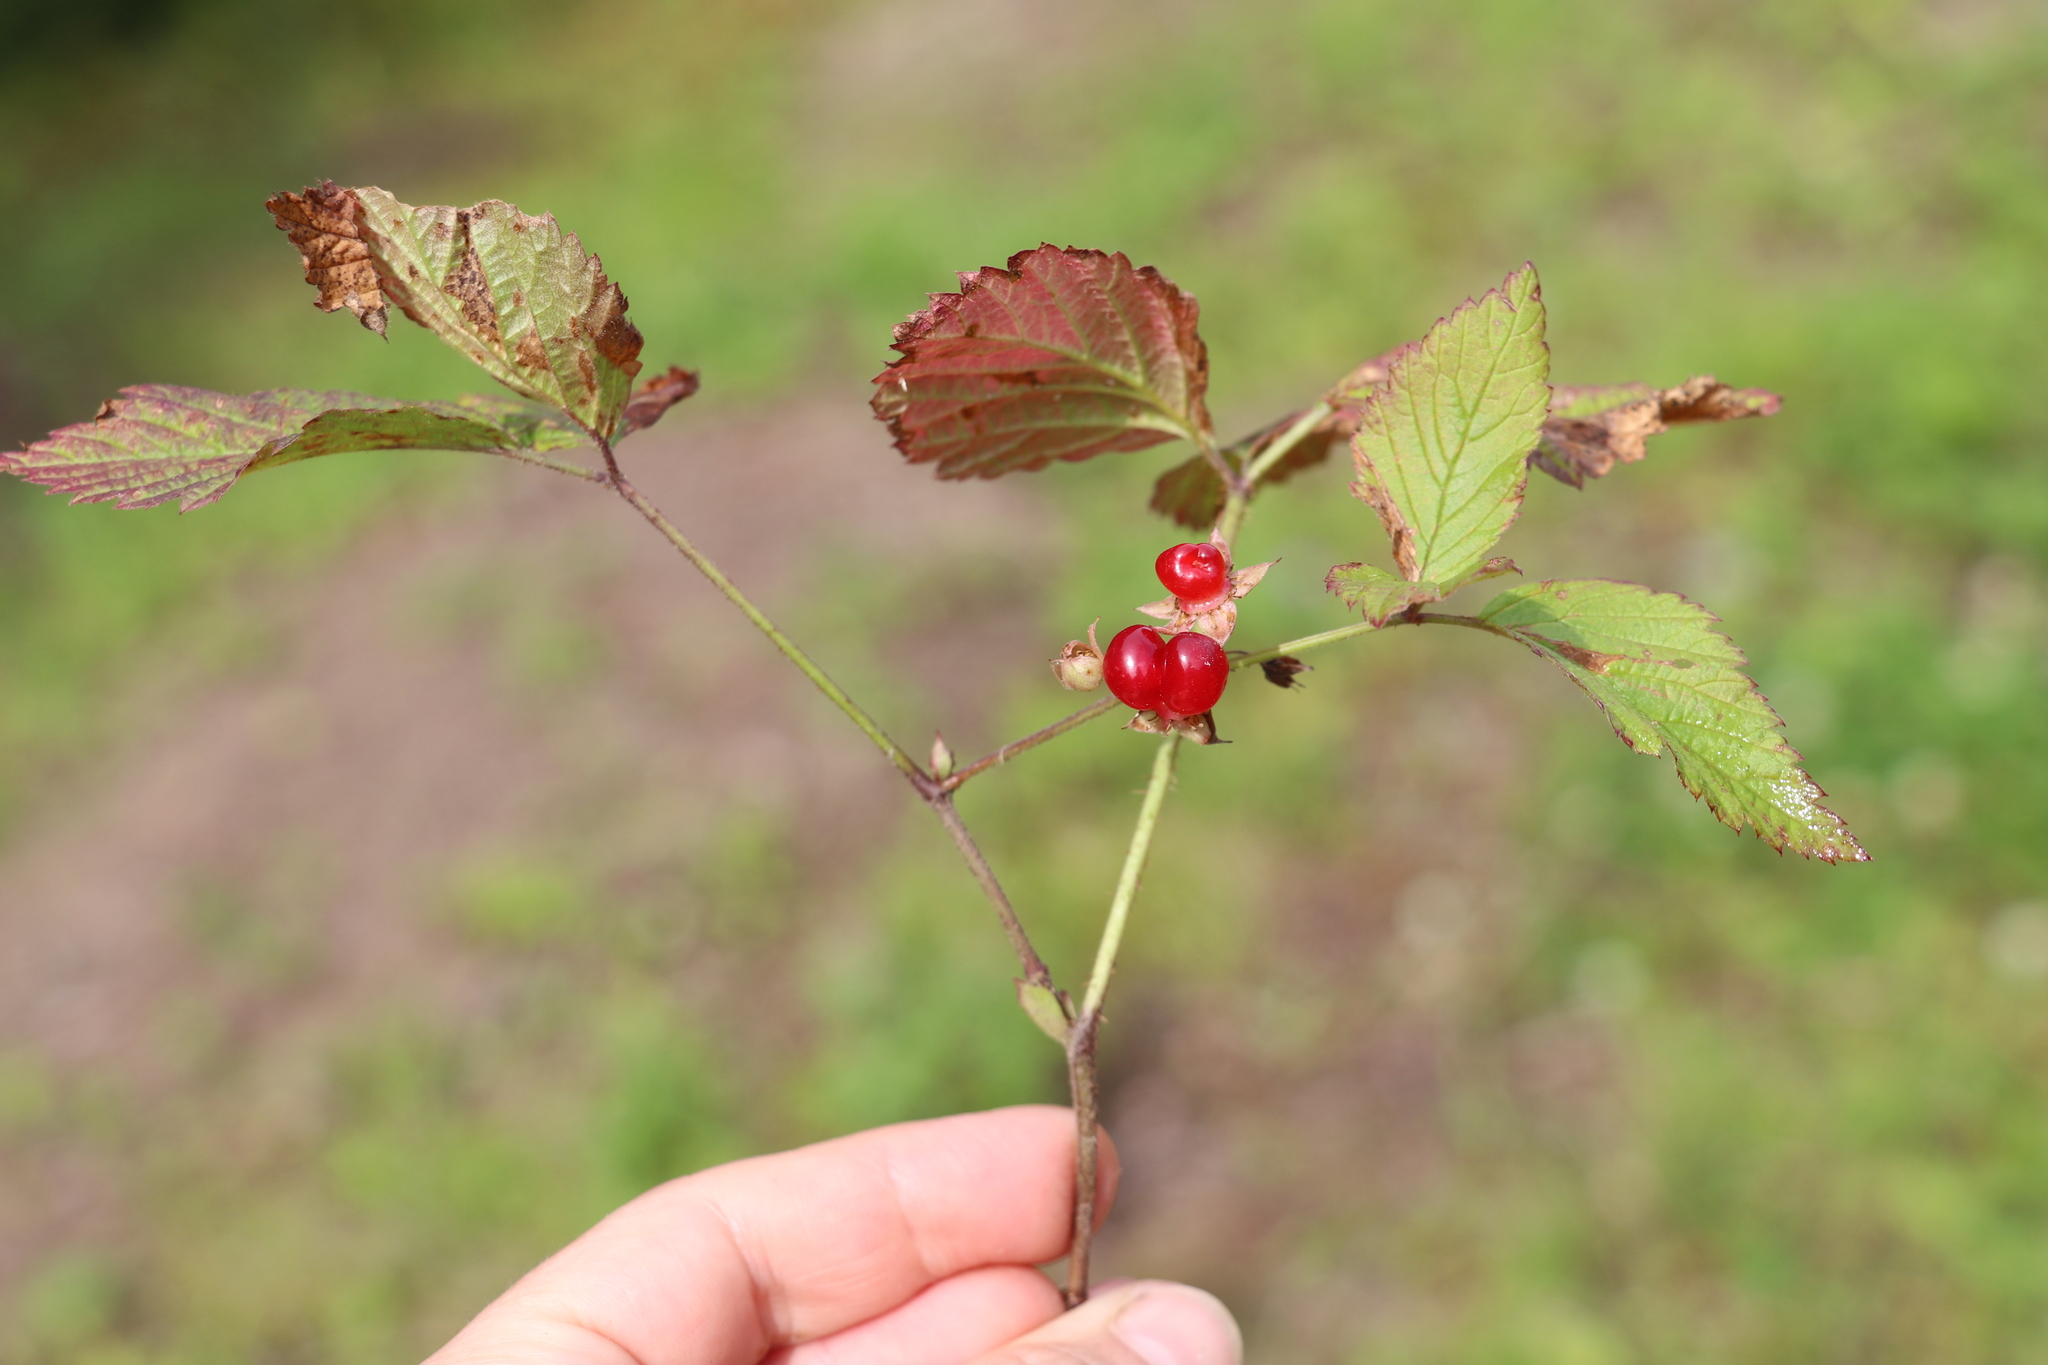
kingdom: Plantae
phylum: Tracheophyta
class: Magnoliopsida
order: Rosales
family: Rosaceae
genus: Rubus
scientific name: Rubus saxatilis
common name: Stone bramble
